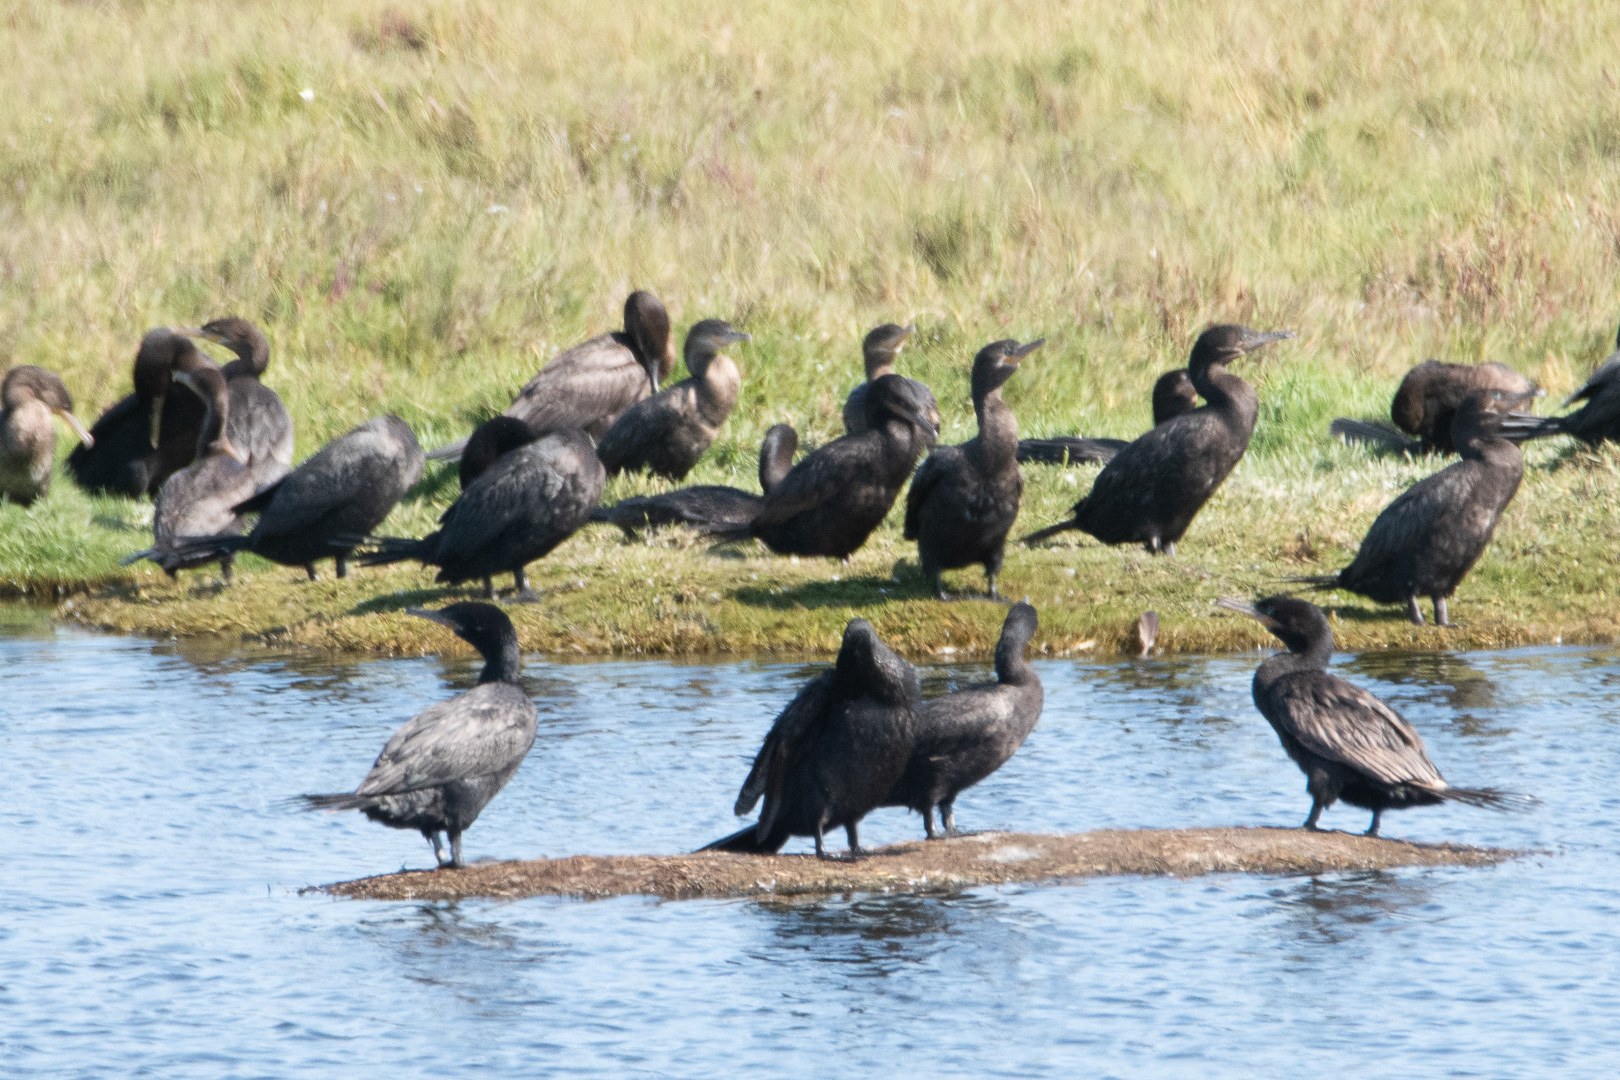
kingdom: Animalia
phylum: Chordata
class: Aves
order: Suliformes
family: Phalacrocoracidae
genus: Phalacrocorax
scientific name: Phalacrocorax brasilianus
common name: Neotropic cormorant
